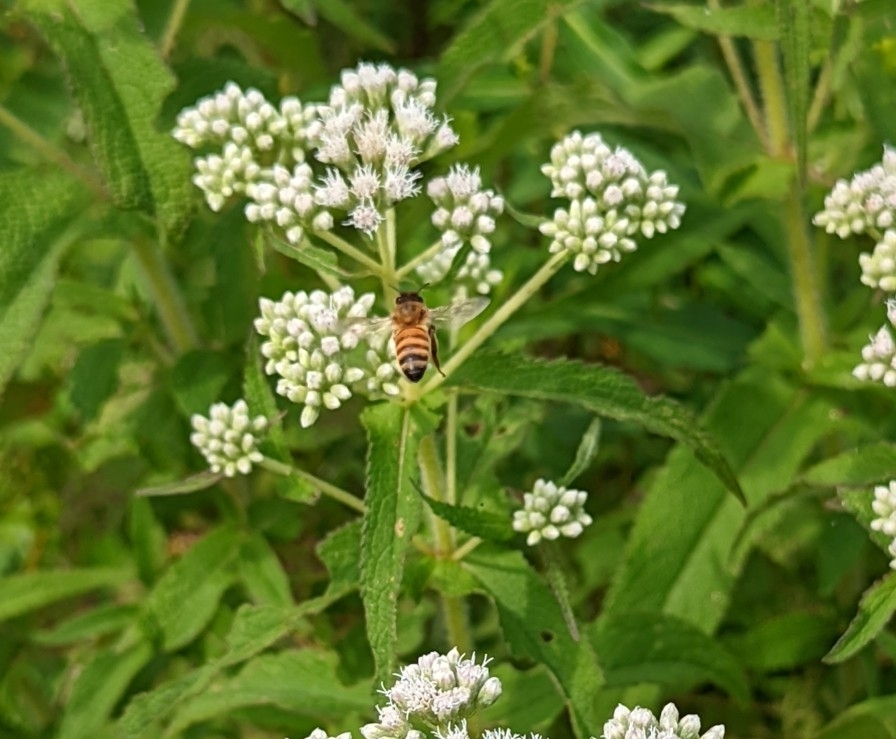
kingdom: Animalia
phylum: Arthropoda
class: Insecta
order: Hymenoptera
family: Apidae
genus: Apis
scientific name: Apis mellifera
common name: Honey bee
